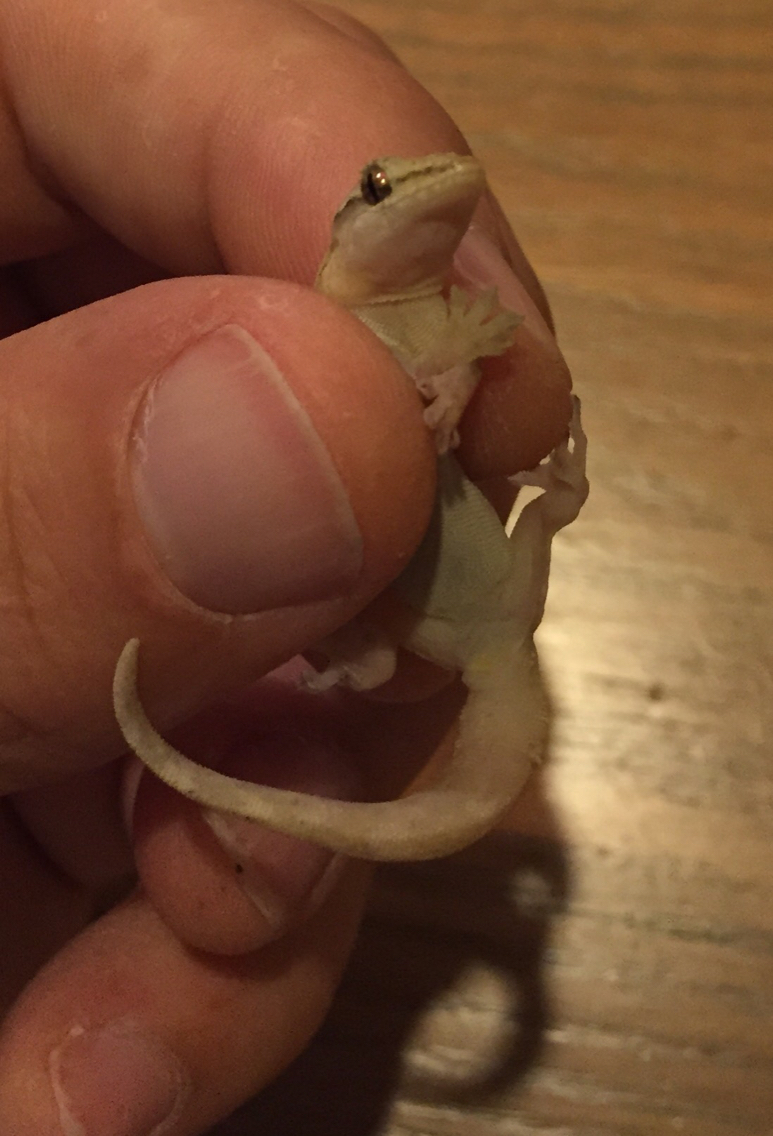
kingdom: Animalia
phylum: Chordata
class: Squamata
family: Gekkonidae
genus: Lepidodactylus
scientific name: Lepidodactylus lugubris
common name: Mourning gecko
